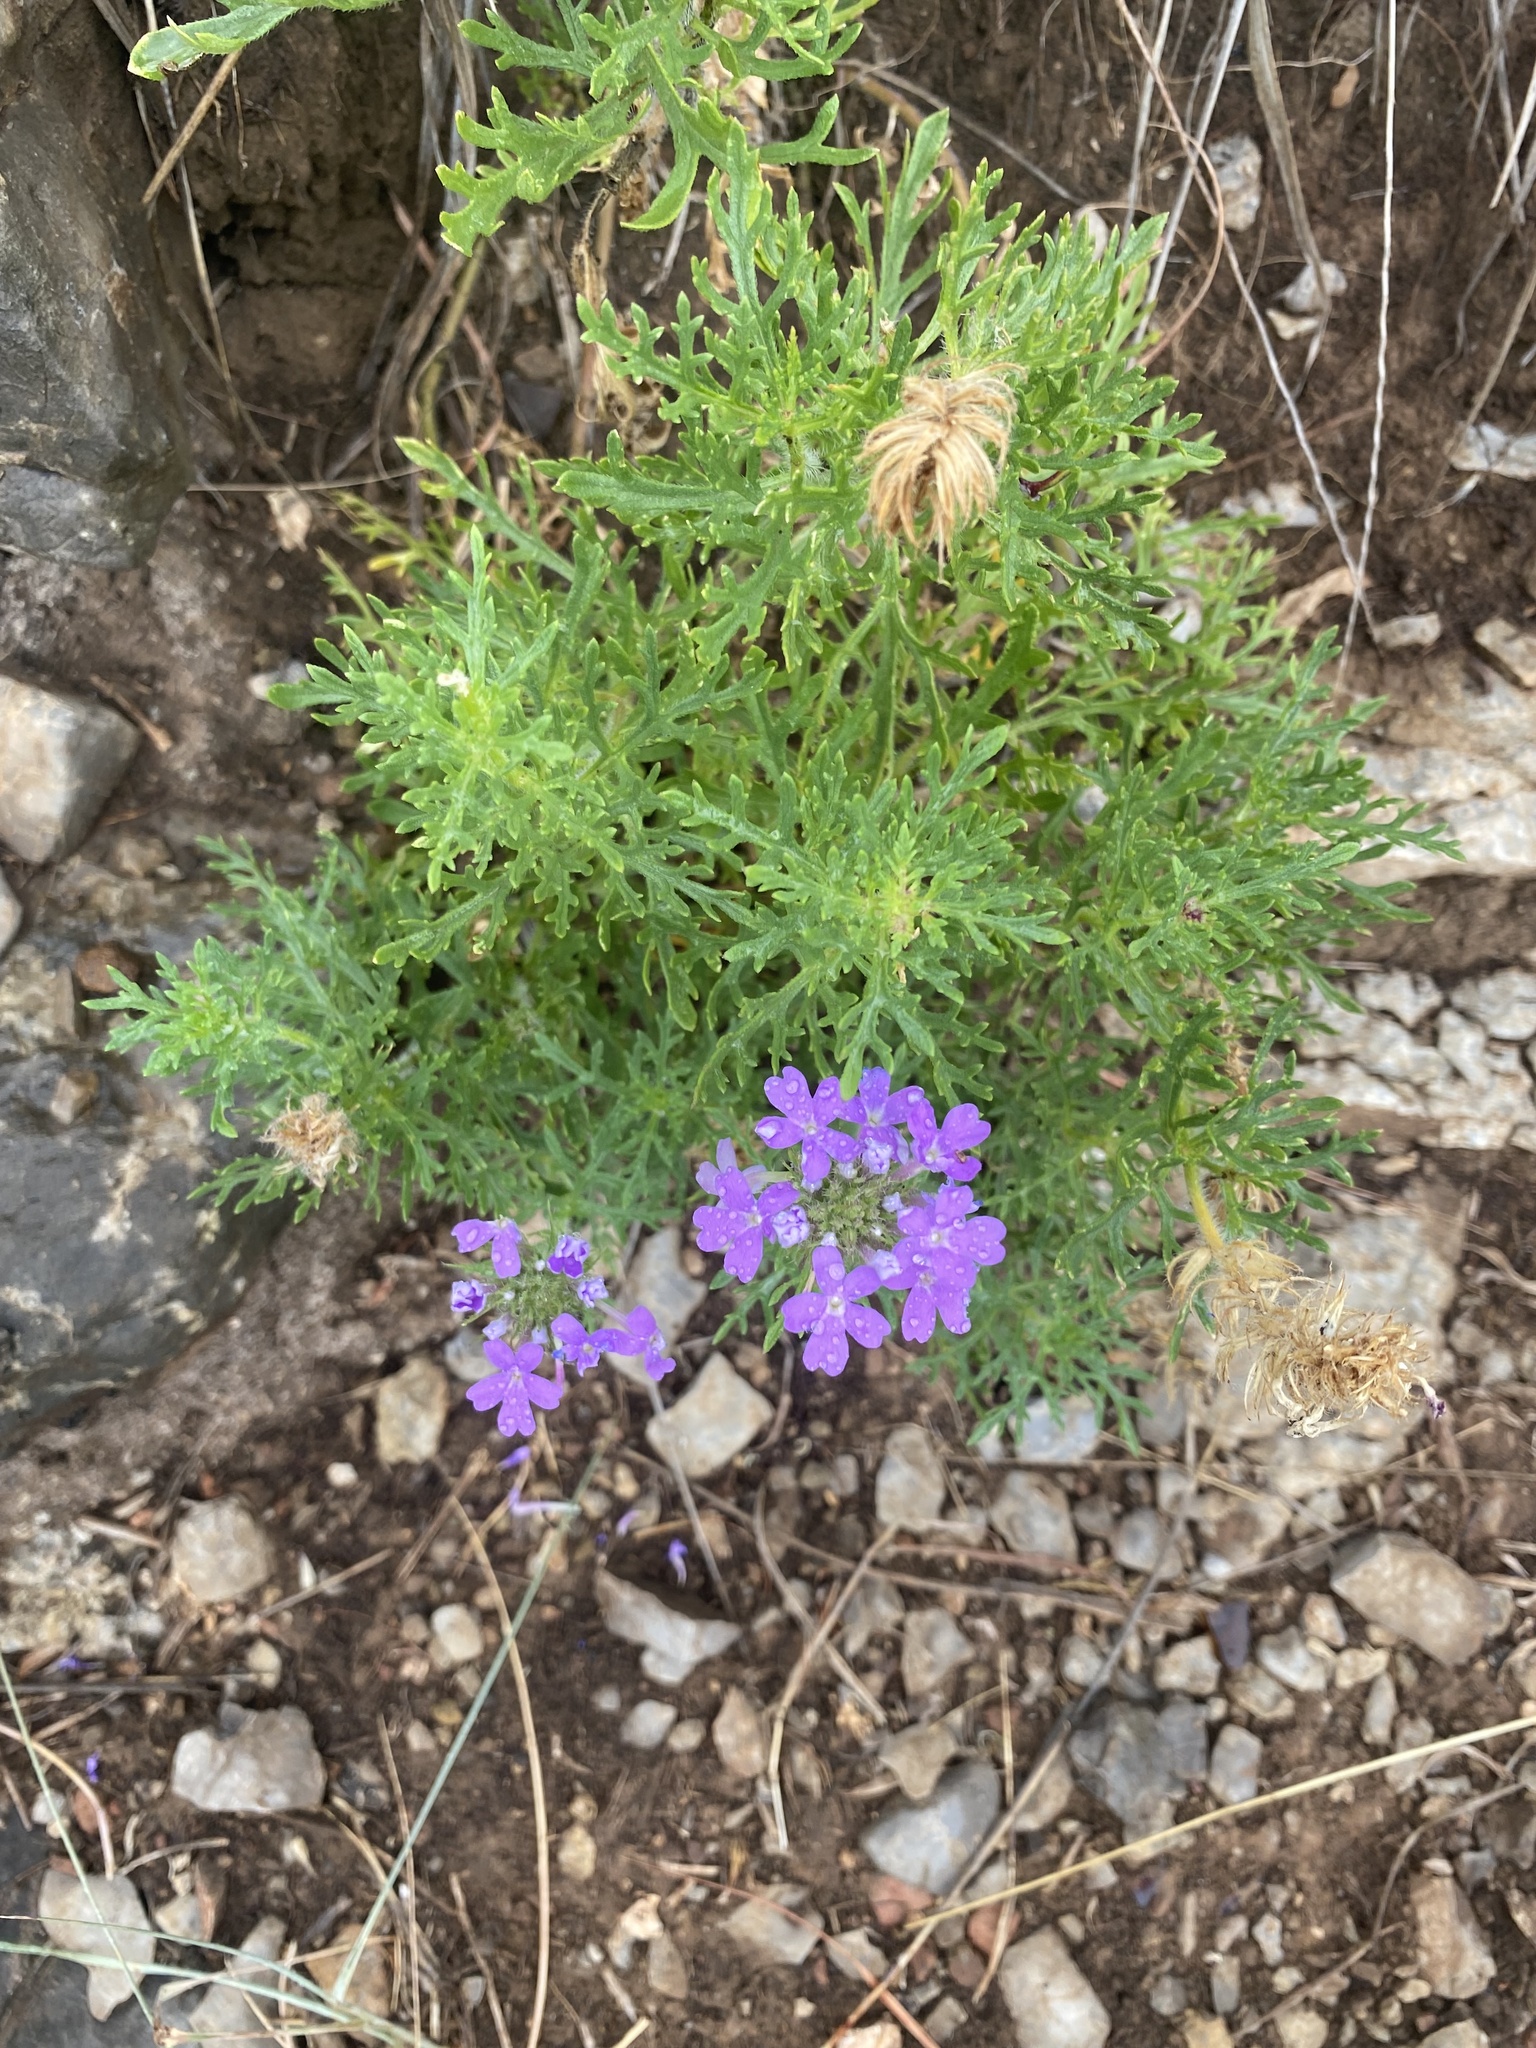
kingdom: Plantae
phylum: Tracheophyta
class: Magnoliopsida
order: Lamiales
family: Verbenaceae
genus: Verbena
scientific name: Verbena bipinnatifida
